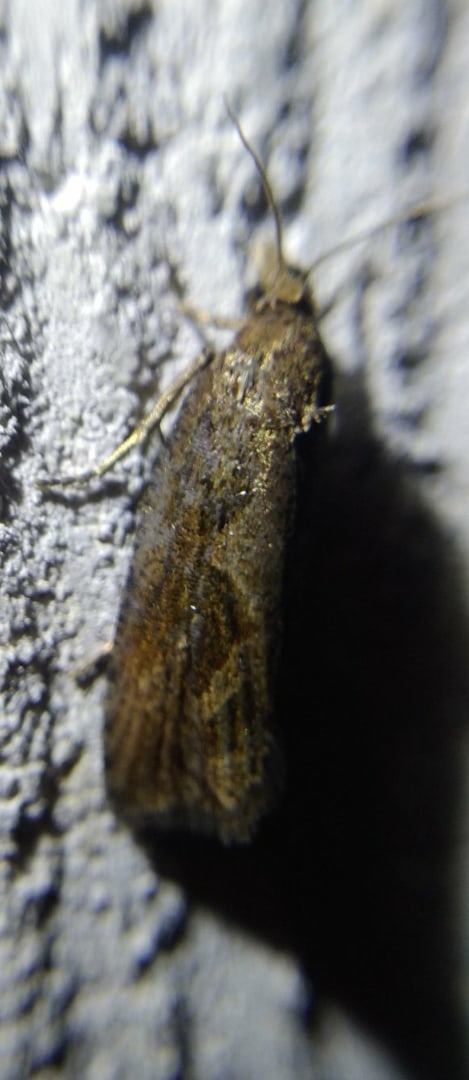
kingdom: Animalia
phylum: Arthropoda
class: Insecta
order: Lepidoptera
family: Tortricidae
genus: Endothenia
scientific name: Endothenia quadrimaculana
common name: Tortricid moth
